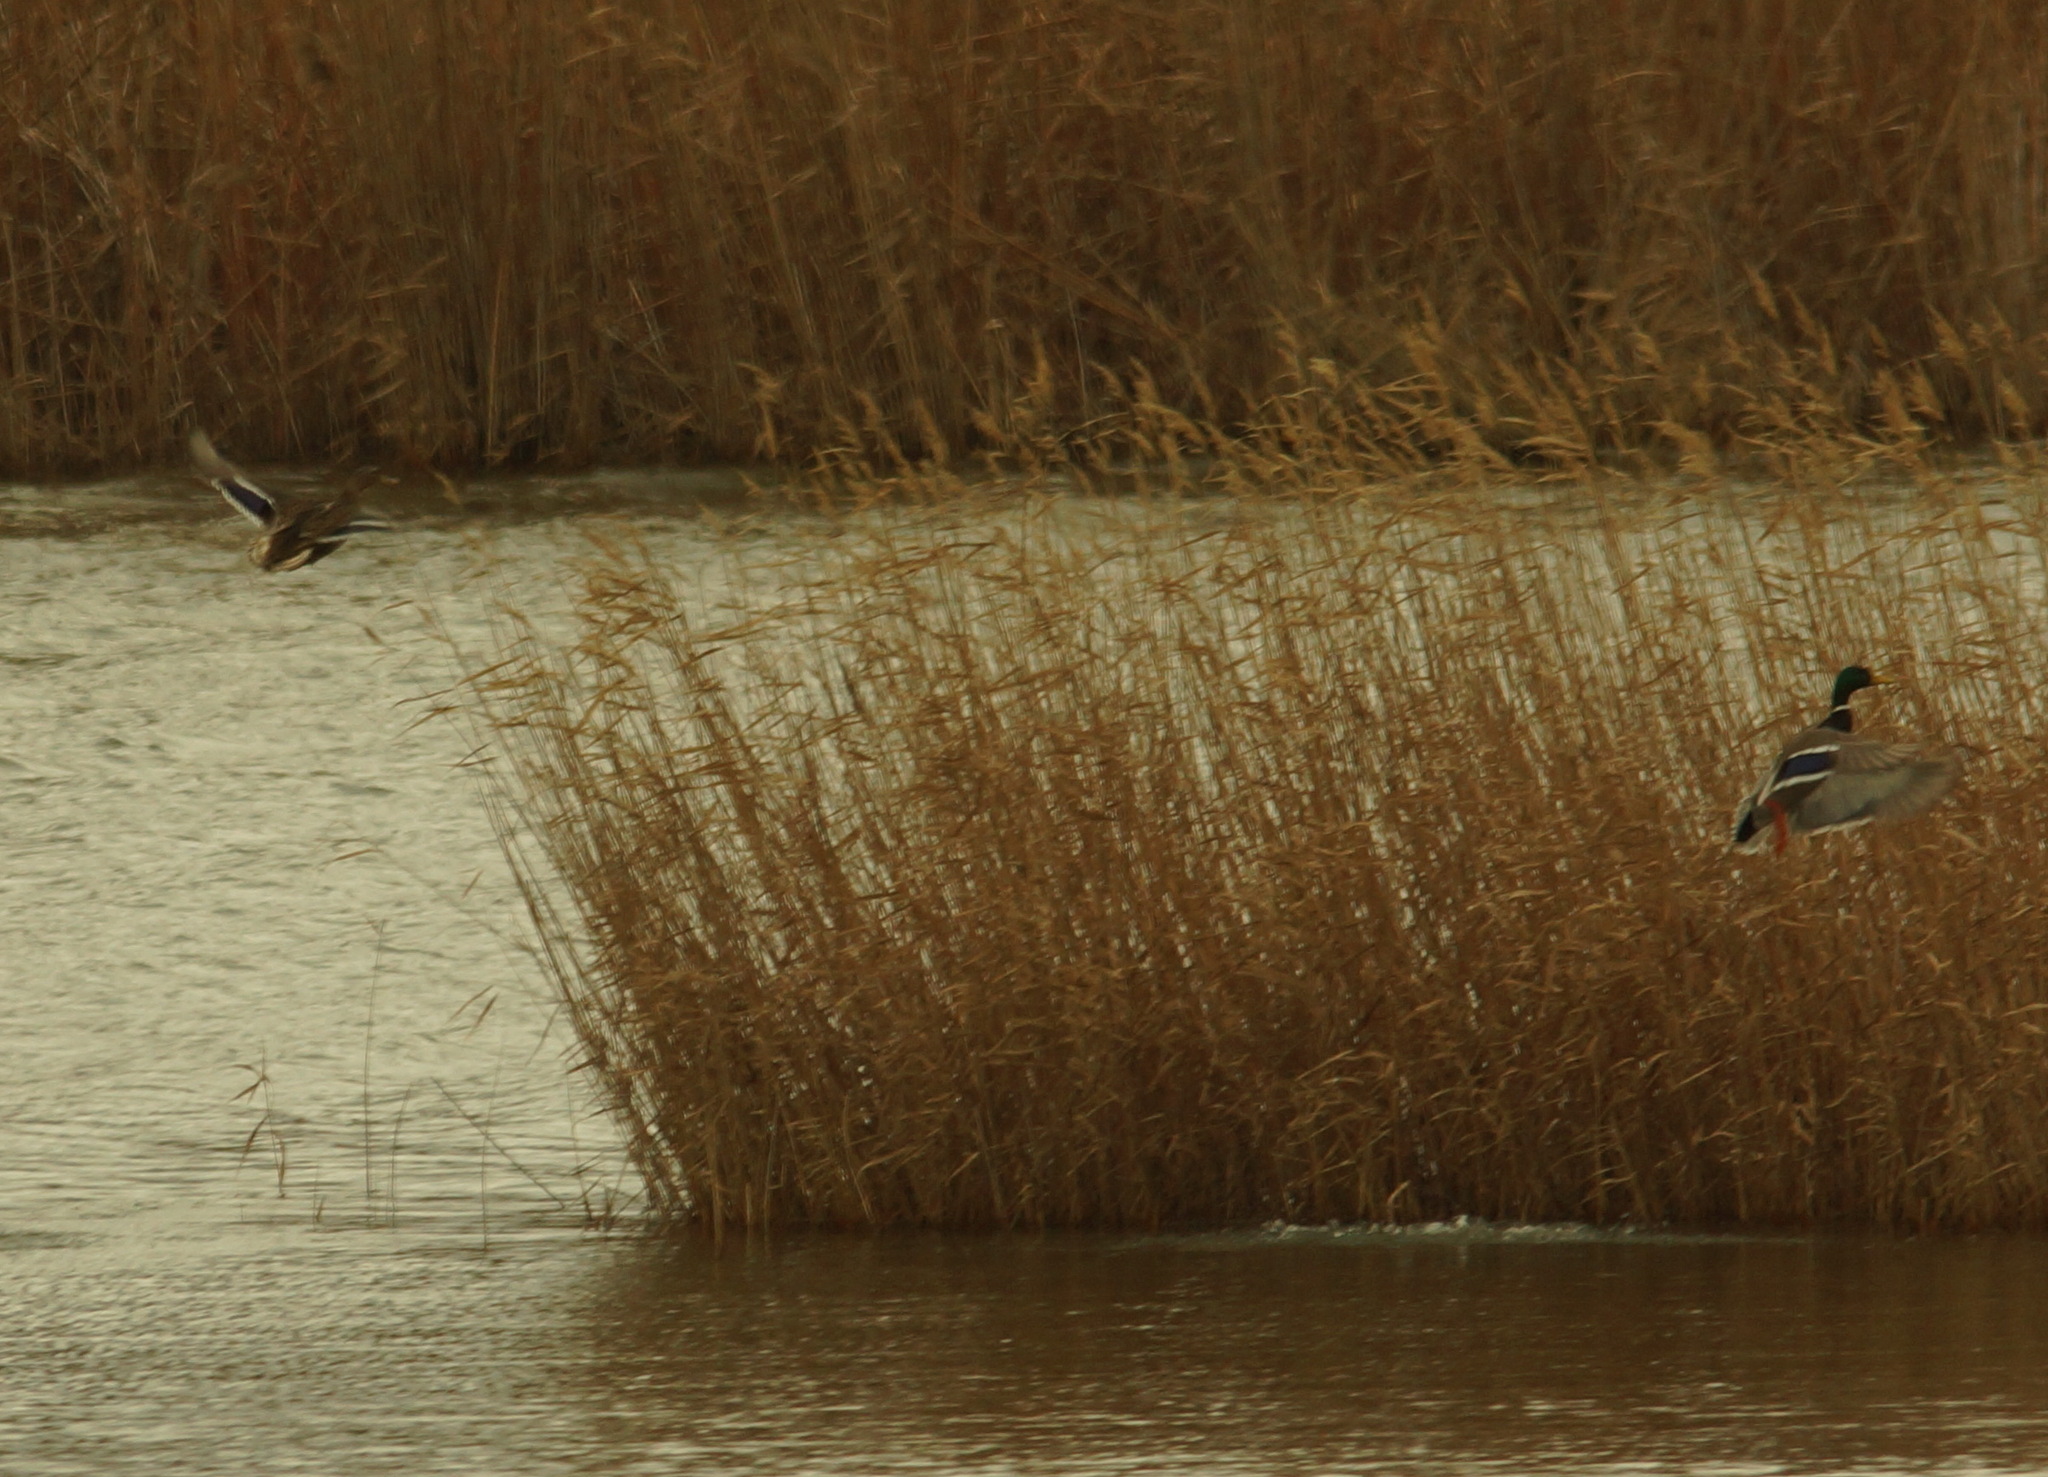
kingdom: Animalia
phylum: Chordata
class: Aves
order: Anseriformes
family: Anatidae
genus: Anas
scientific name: Anas platyrhynchos
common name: Mallard
